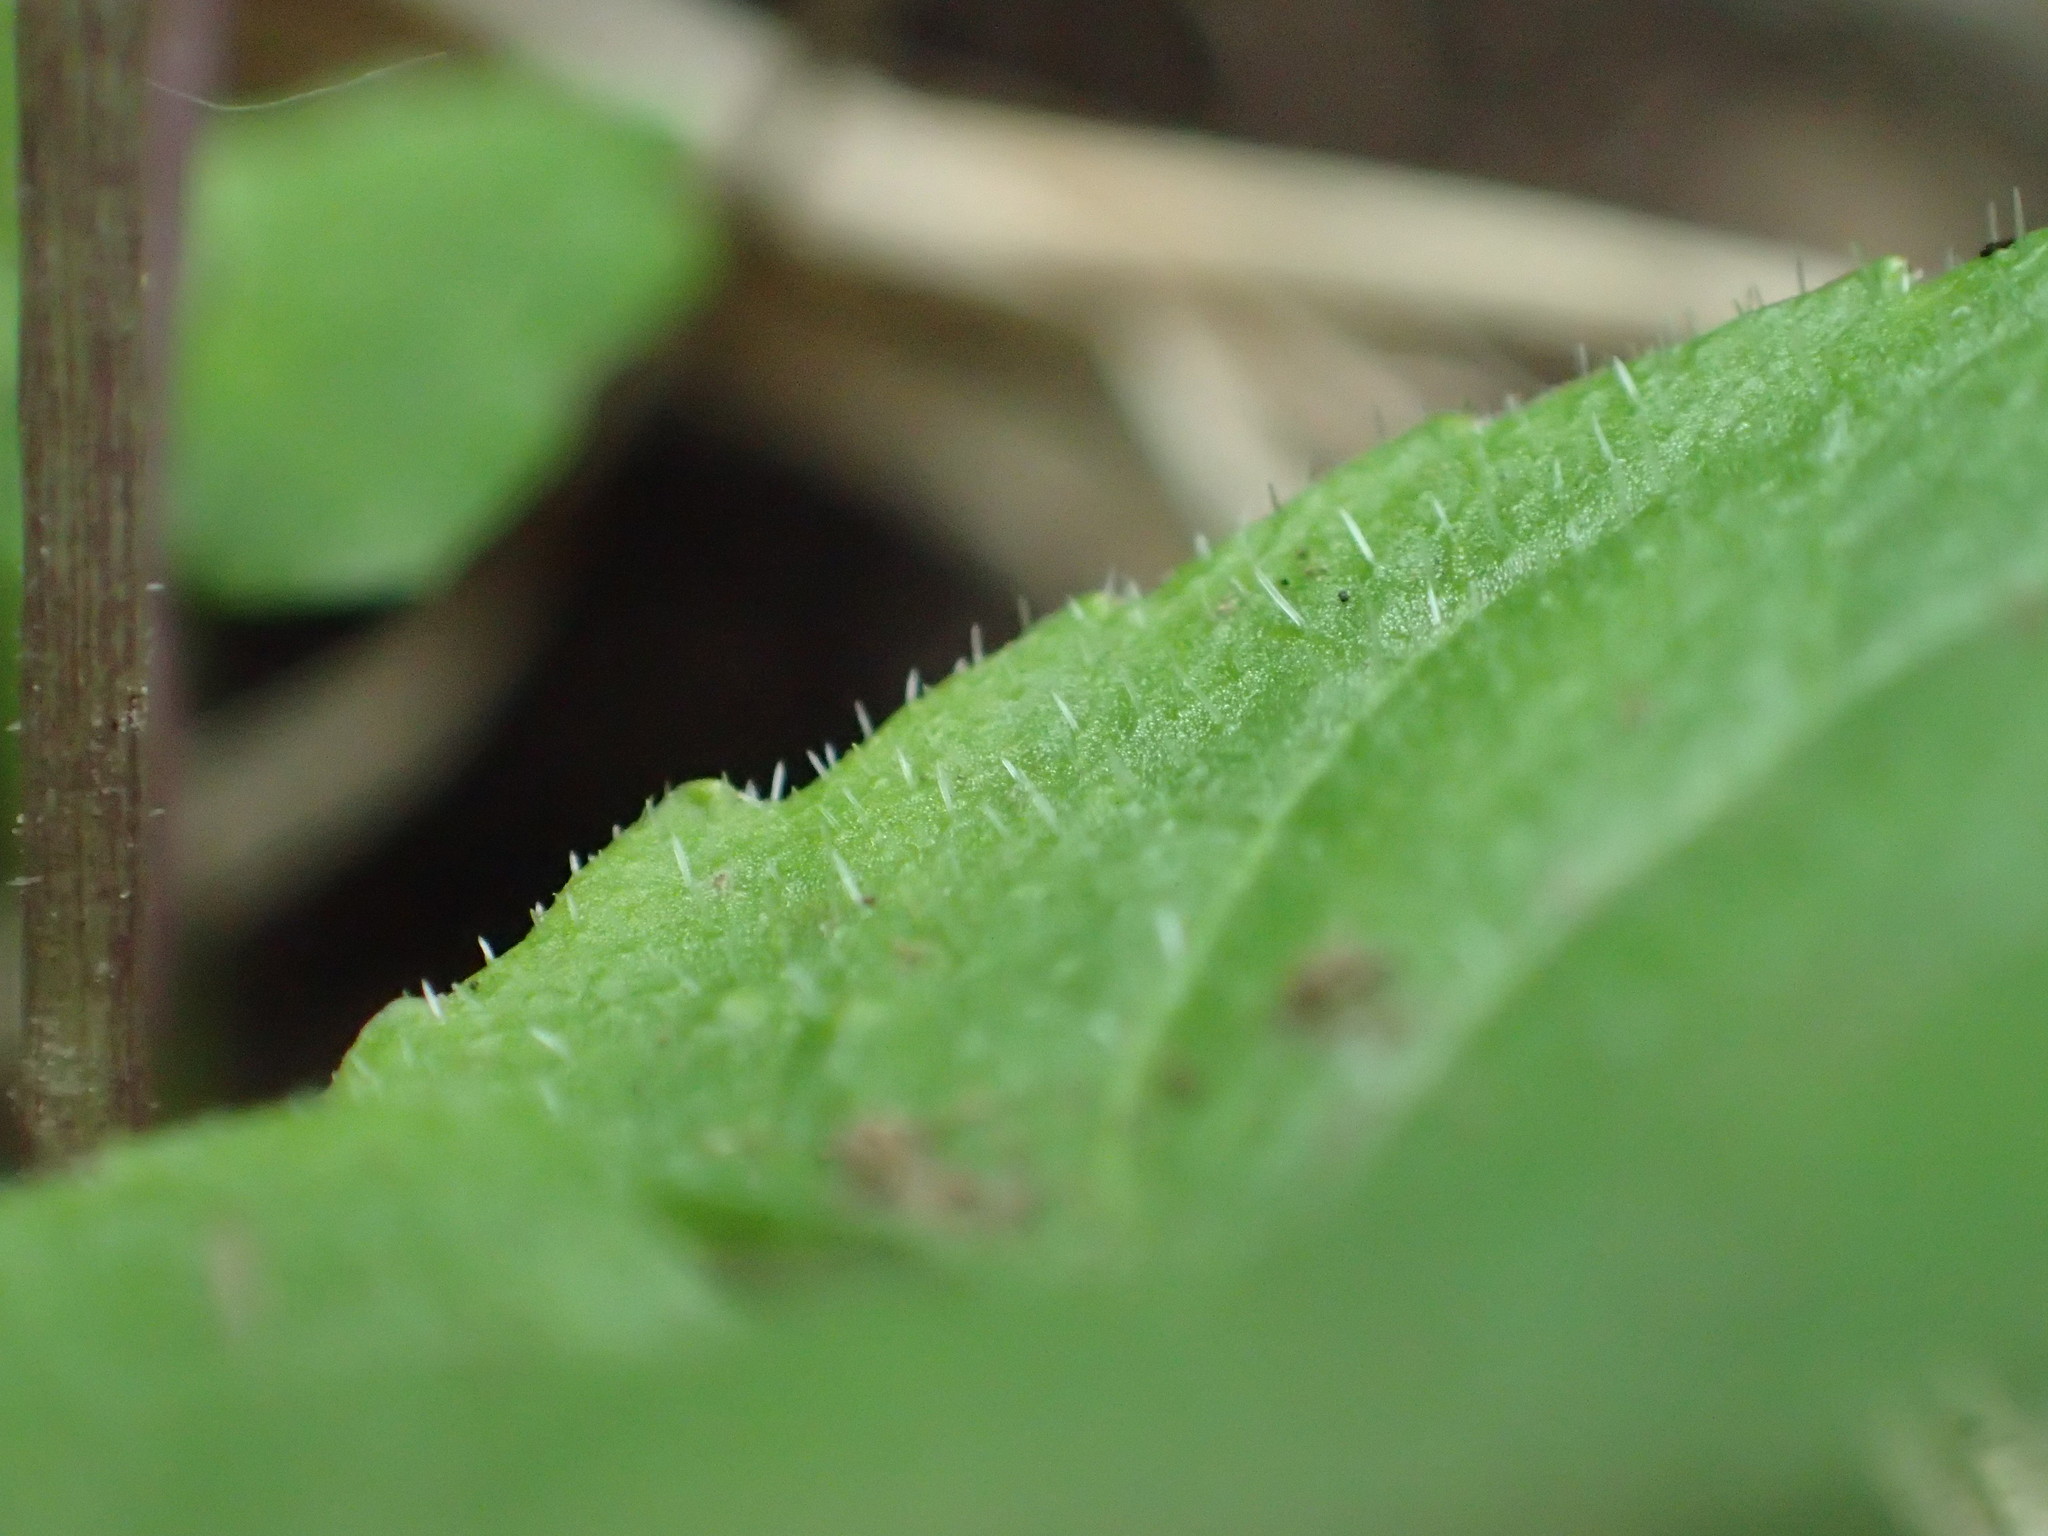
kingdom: Plantae
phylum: Tracheophyta
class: Magnoliopsida
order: Malpighiales
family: Violaceae
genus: Viola
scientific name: Viola selkirkii
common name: Selkirk's violet
